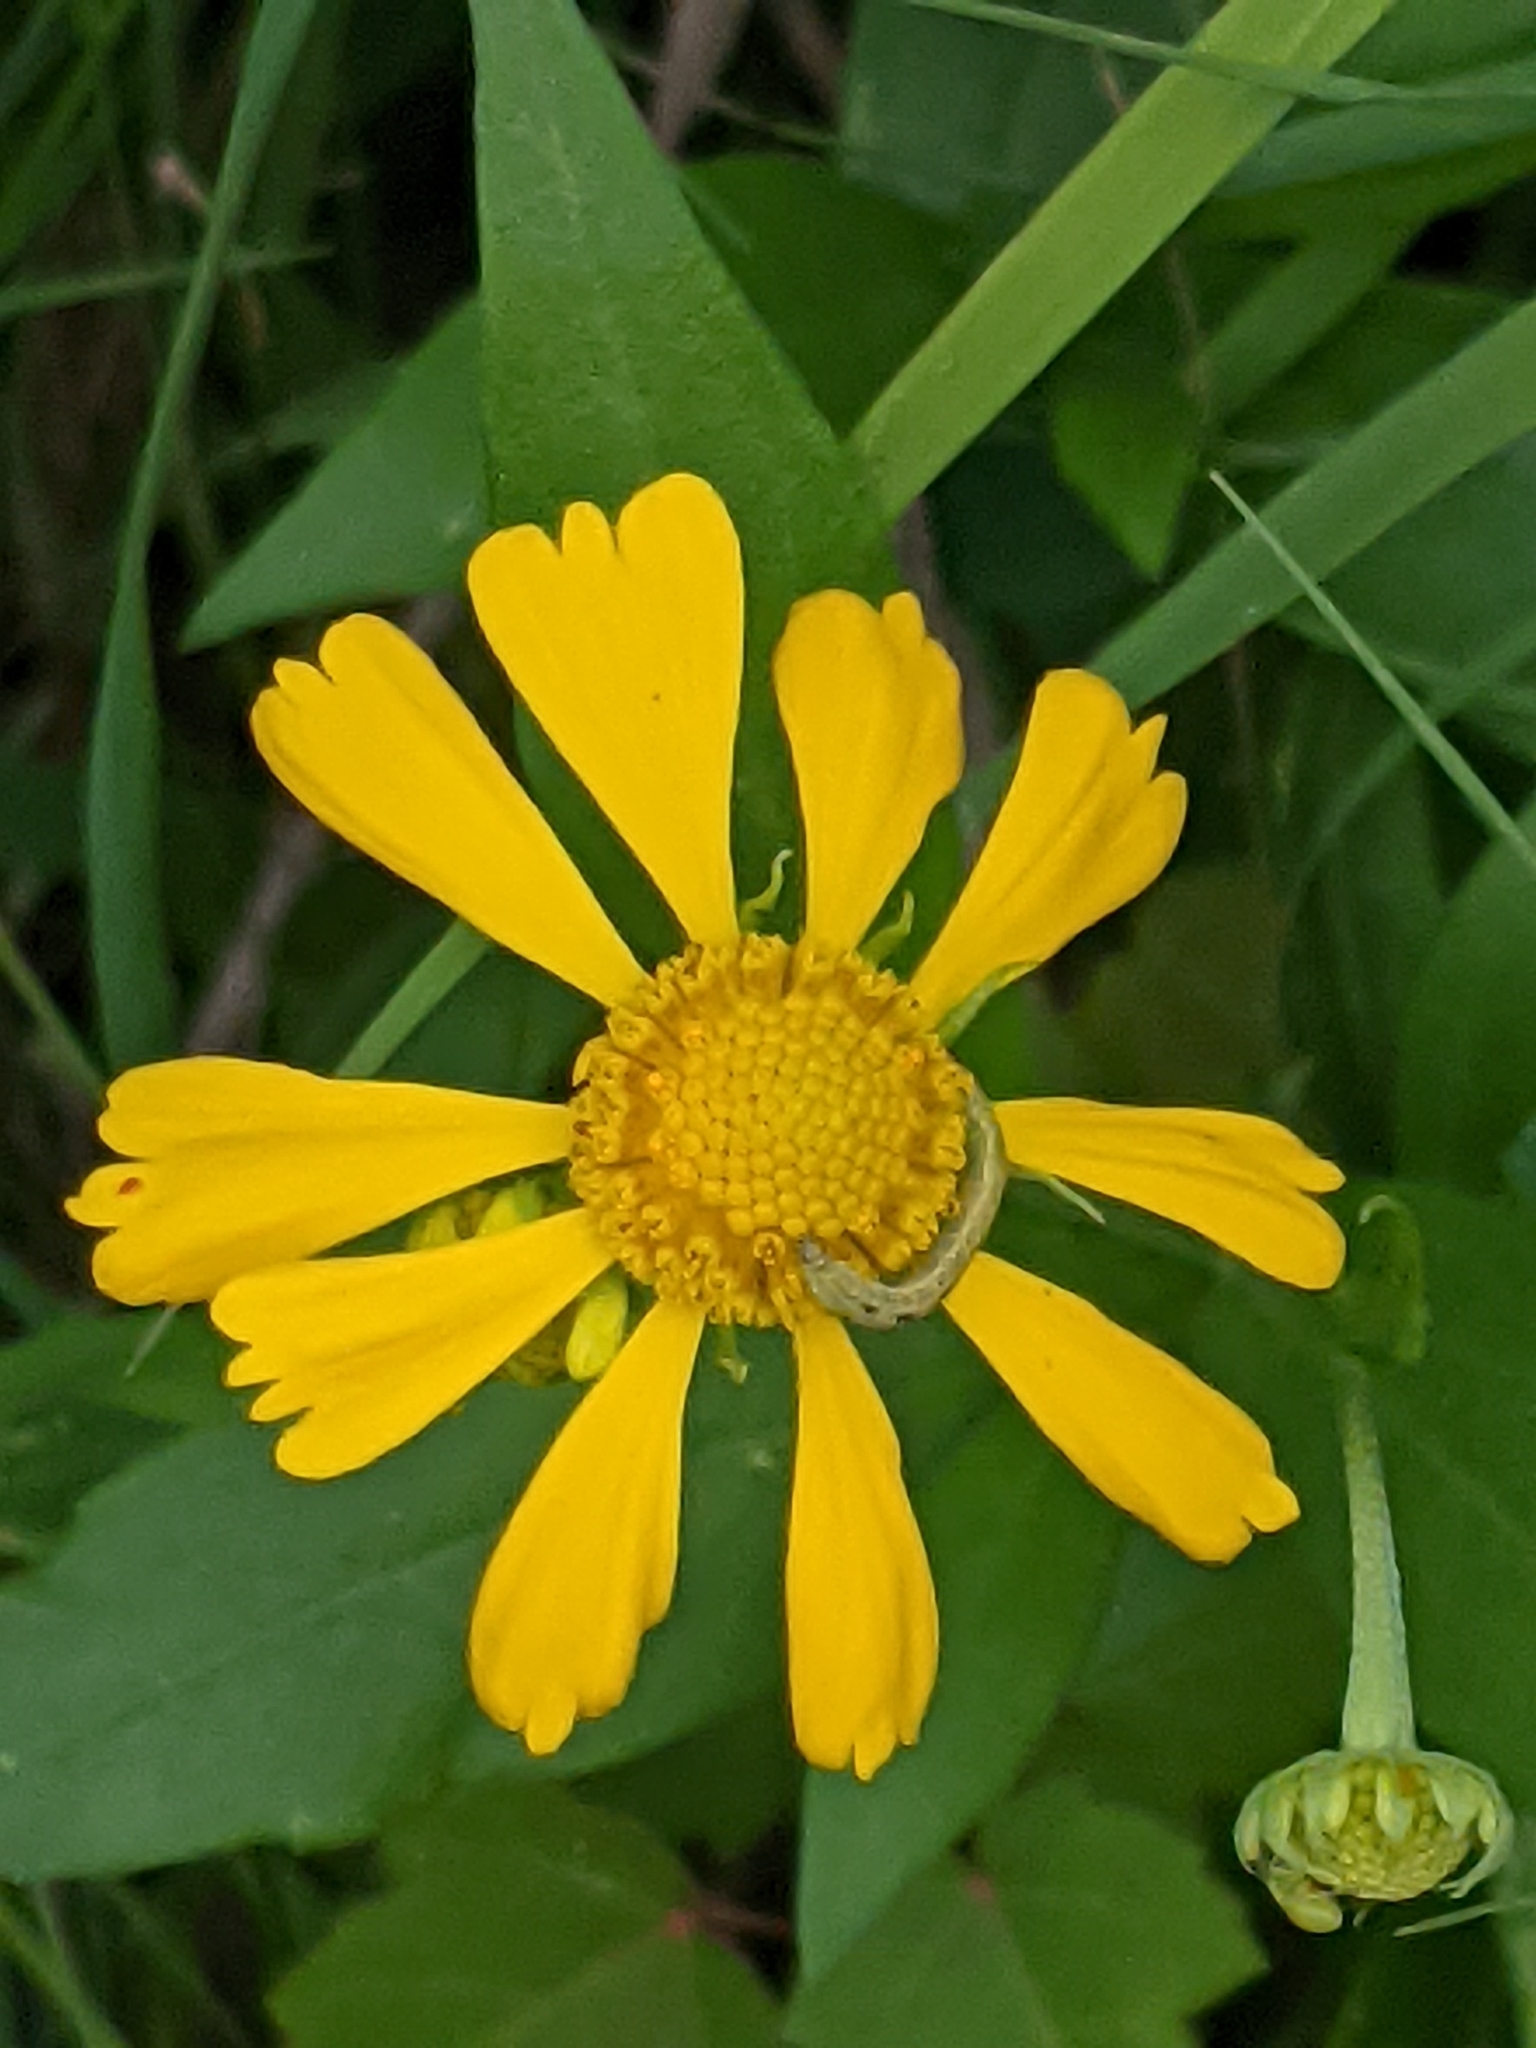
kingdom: Plantae
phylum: Tracheophyta
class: Magnoliopsida
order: Asterales
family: Asteraceae
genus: Helenium
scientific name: Helenium autumnale
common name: Sneezeweed
